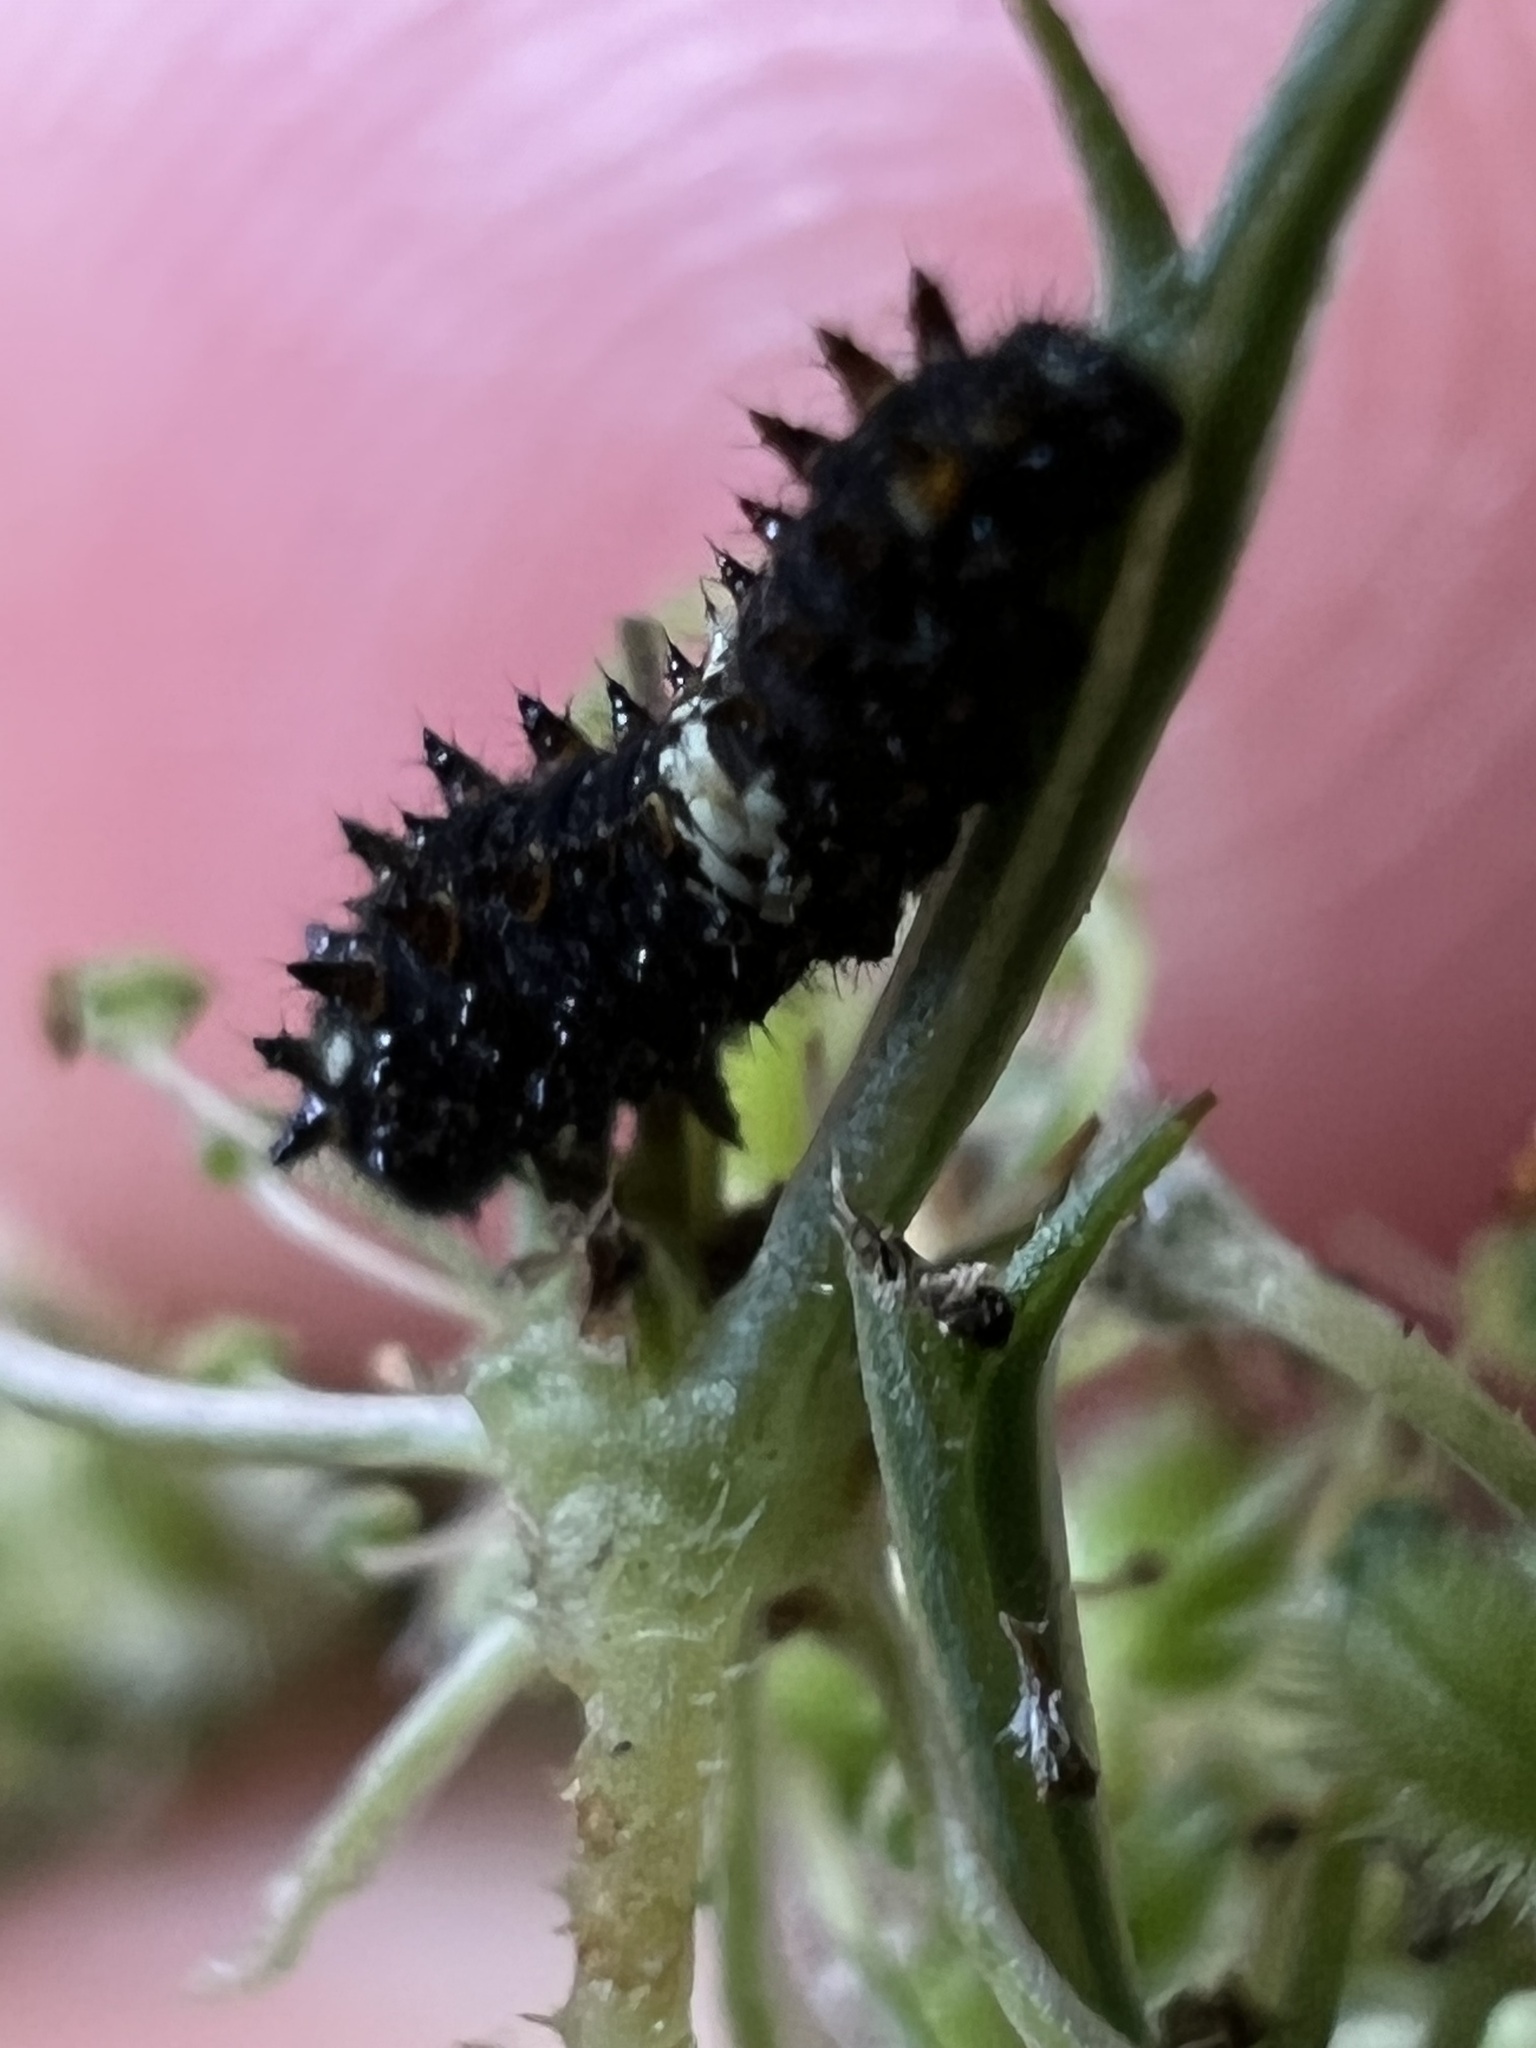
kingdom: Animalia
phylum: Arthropoda
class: Insecta
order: Lepidoptera
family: Papilionidae
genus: Papilio
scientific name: Papilio polyxenes
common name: Black swallowtail
